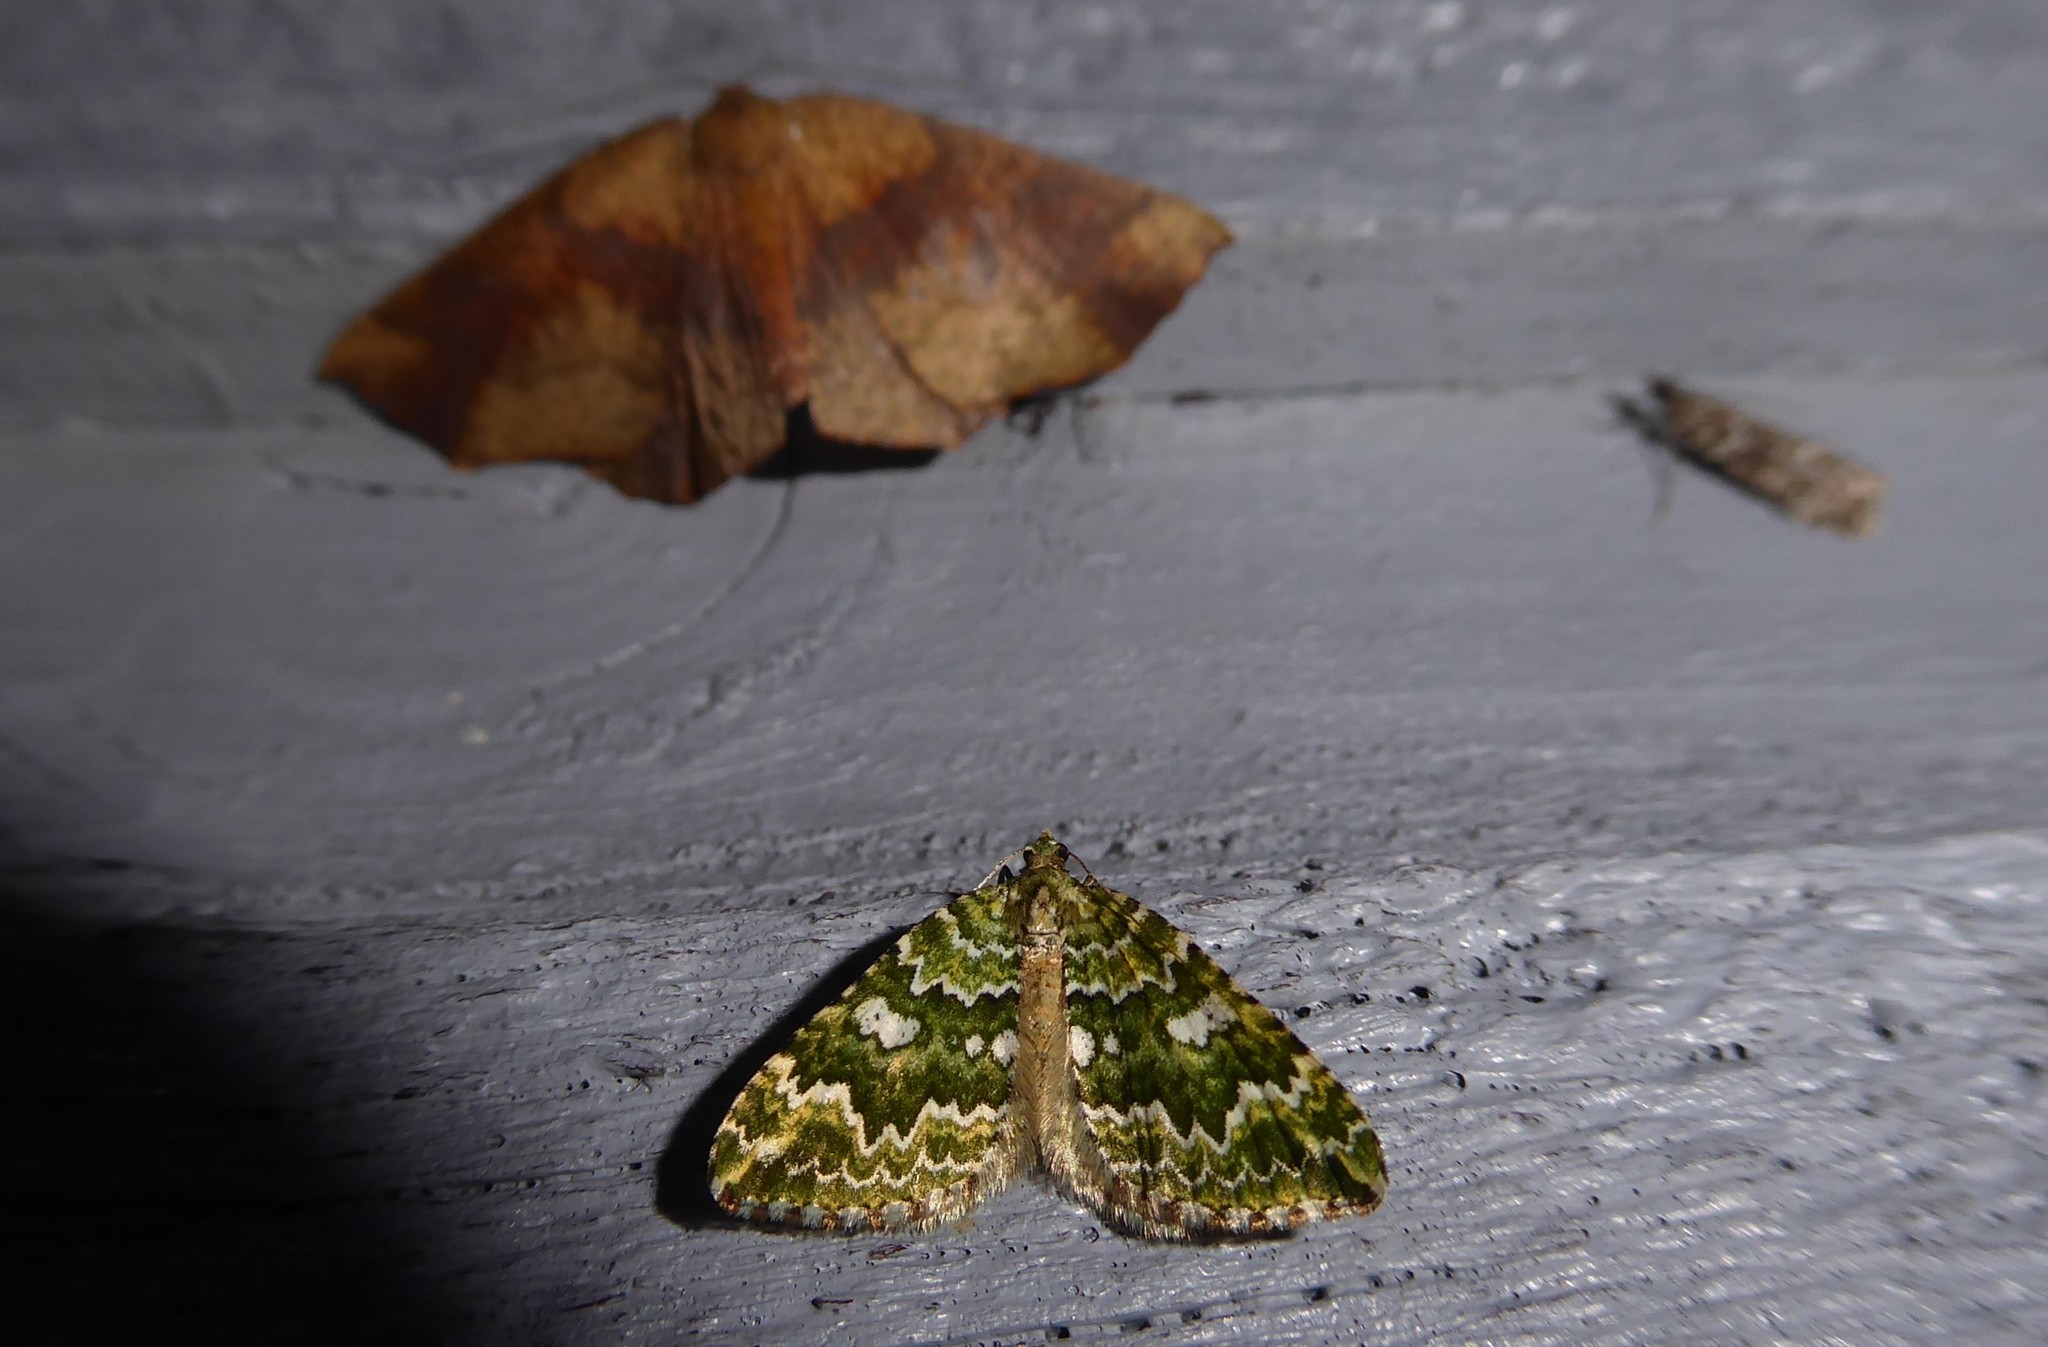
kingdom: Animalia
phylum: Arthropoda
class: Insecta
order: Lepidoptera
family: Geometridae
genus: Asaphodes
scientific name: Asaphodes beata
